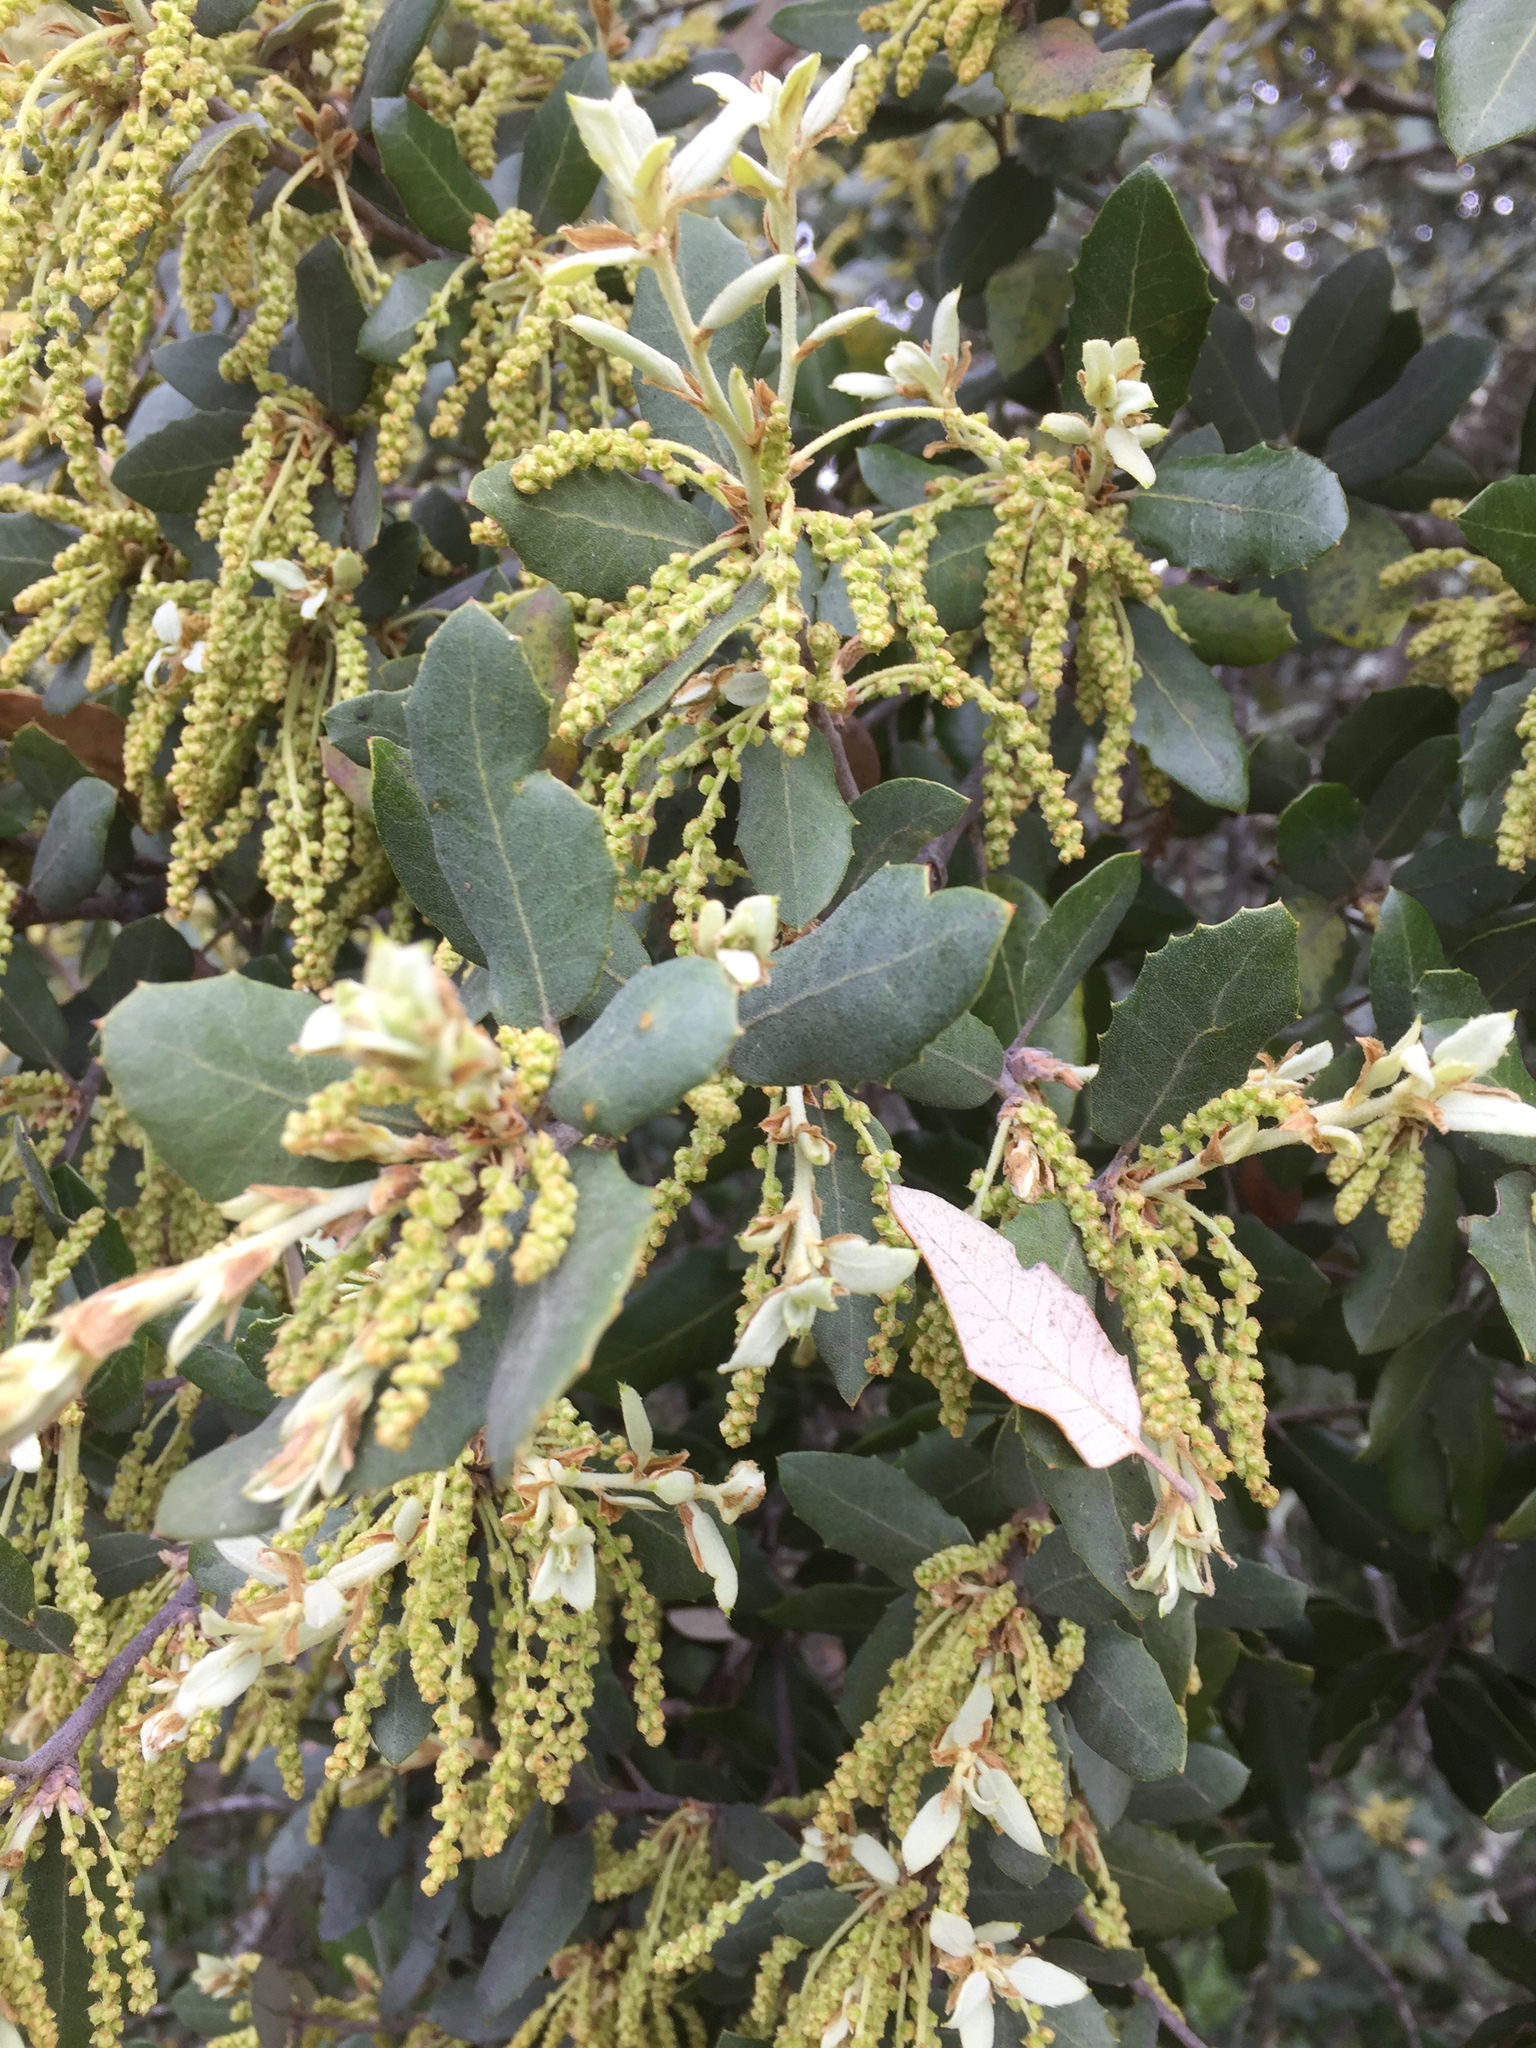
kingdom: Plantae
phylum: Tracheophyta
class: Magnoliopsida
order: Fagales
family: Fagaceae
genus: Quercus
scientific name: Quercus rotundifolia
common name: Holm oak
